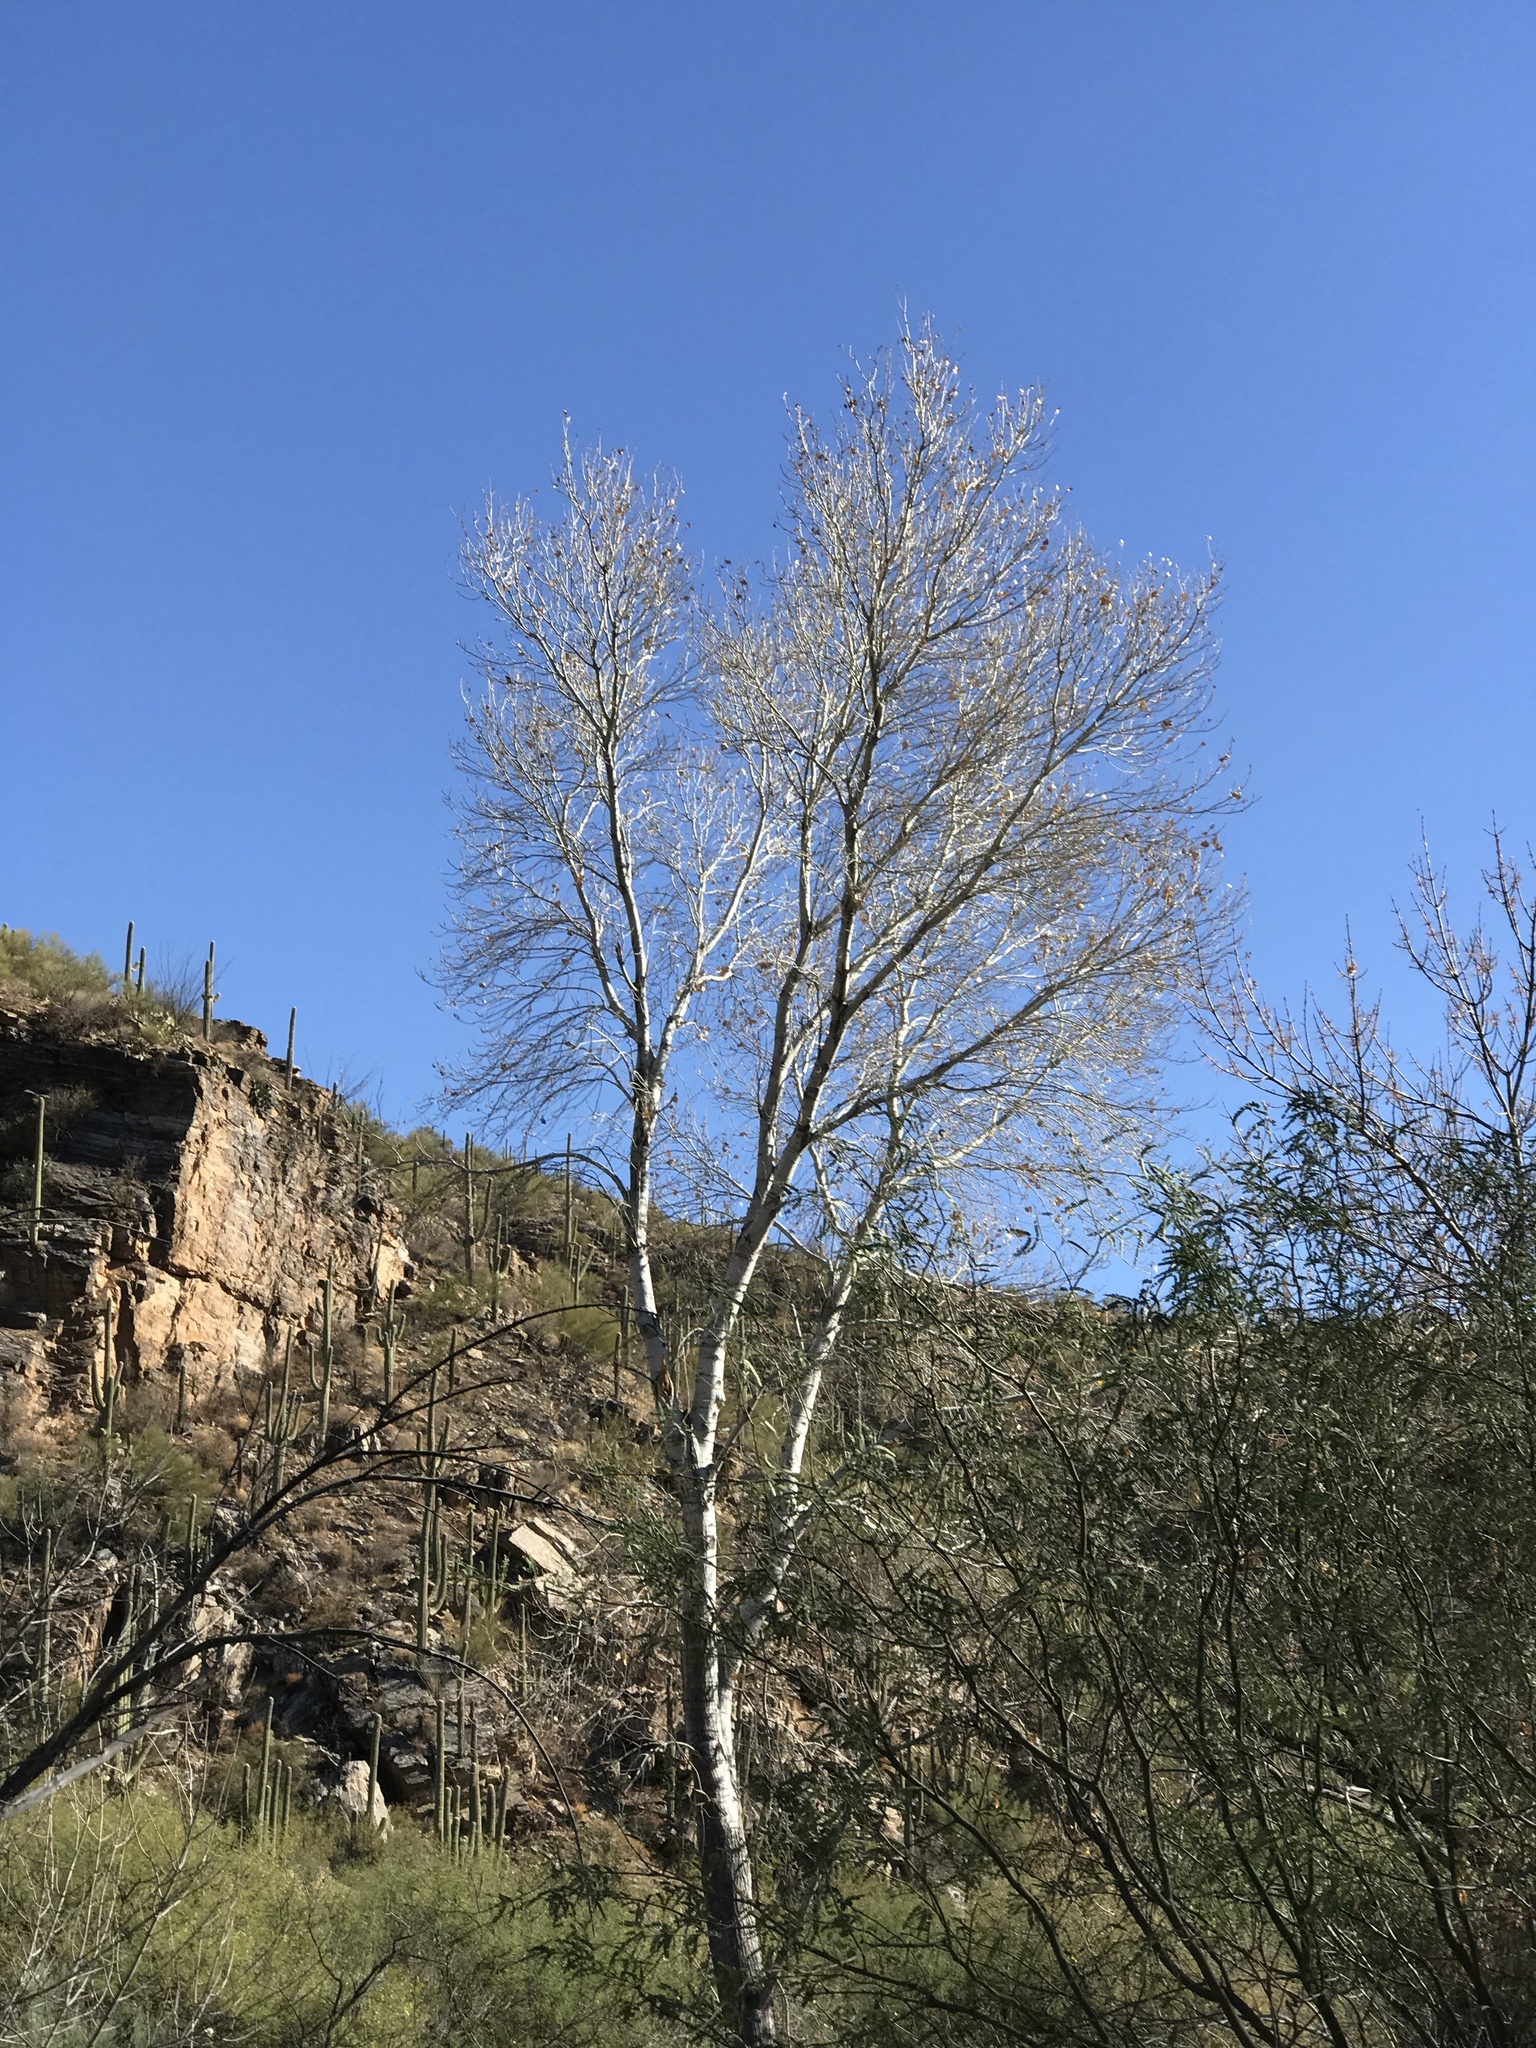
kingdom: Plantae
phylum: Tracheophyta
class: Magnoliopsida
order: Malpighiales
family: Salicaceae
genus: Populus
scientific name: Populus fremontii
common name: Fremont's cottonwood
